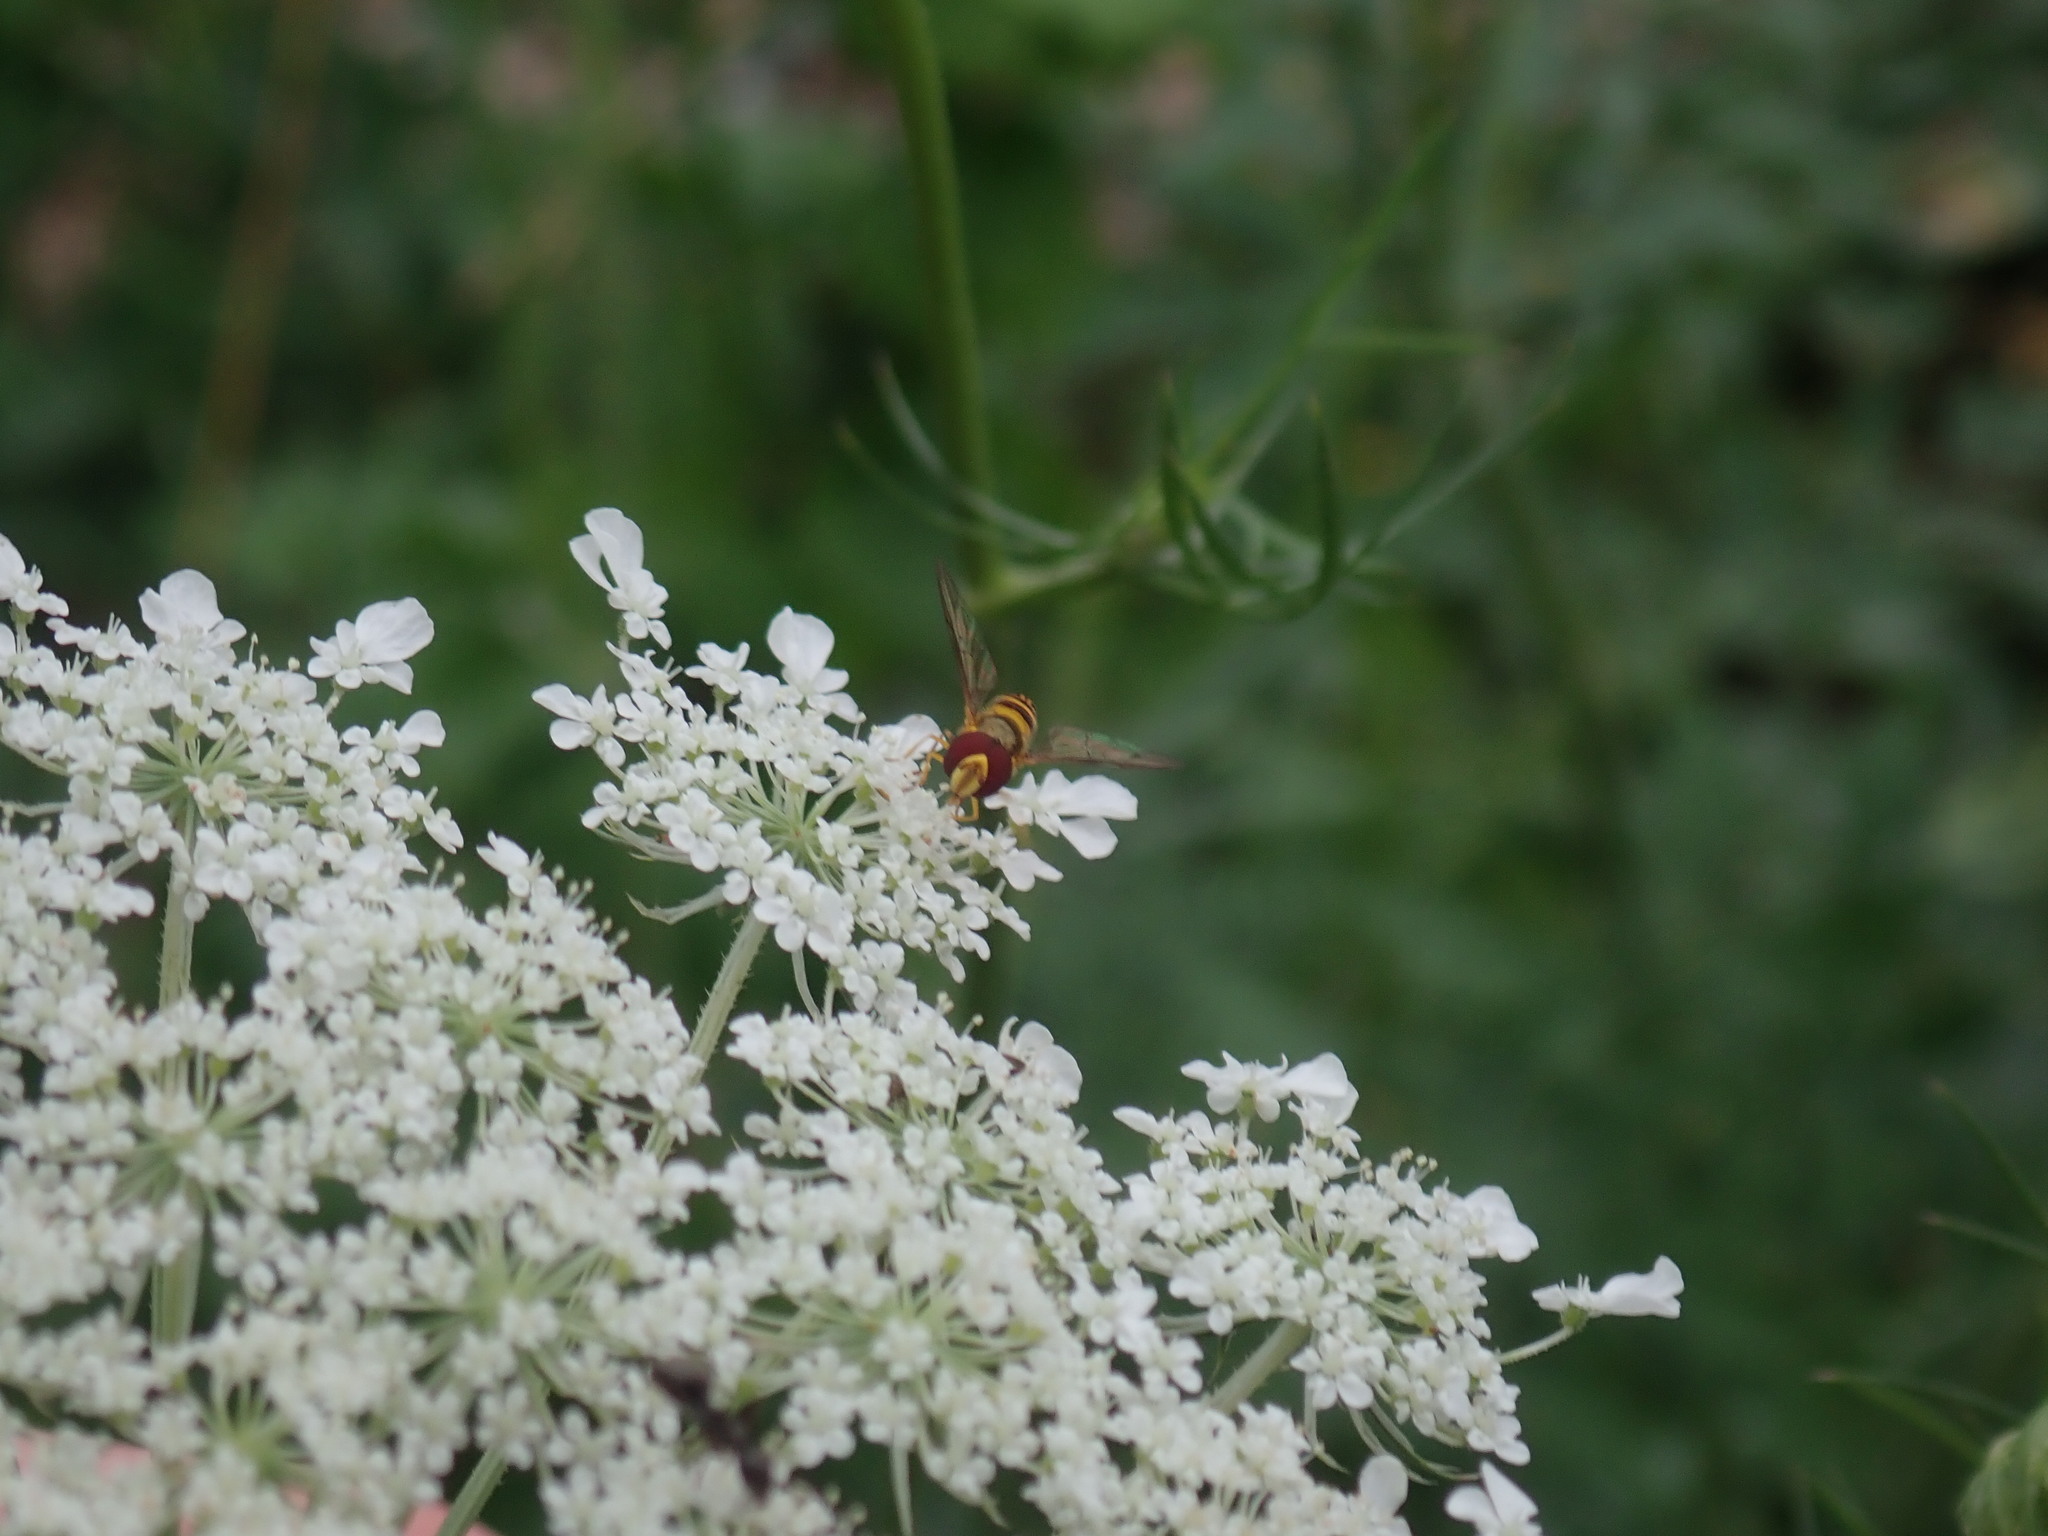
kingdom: Animalia
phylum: Arthropoda
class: Insecta
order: Diptera
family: Syrphidae
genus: Allograpta
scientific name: Allograpta obliqua
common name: Common oblique syrphid
